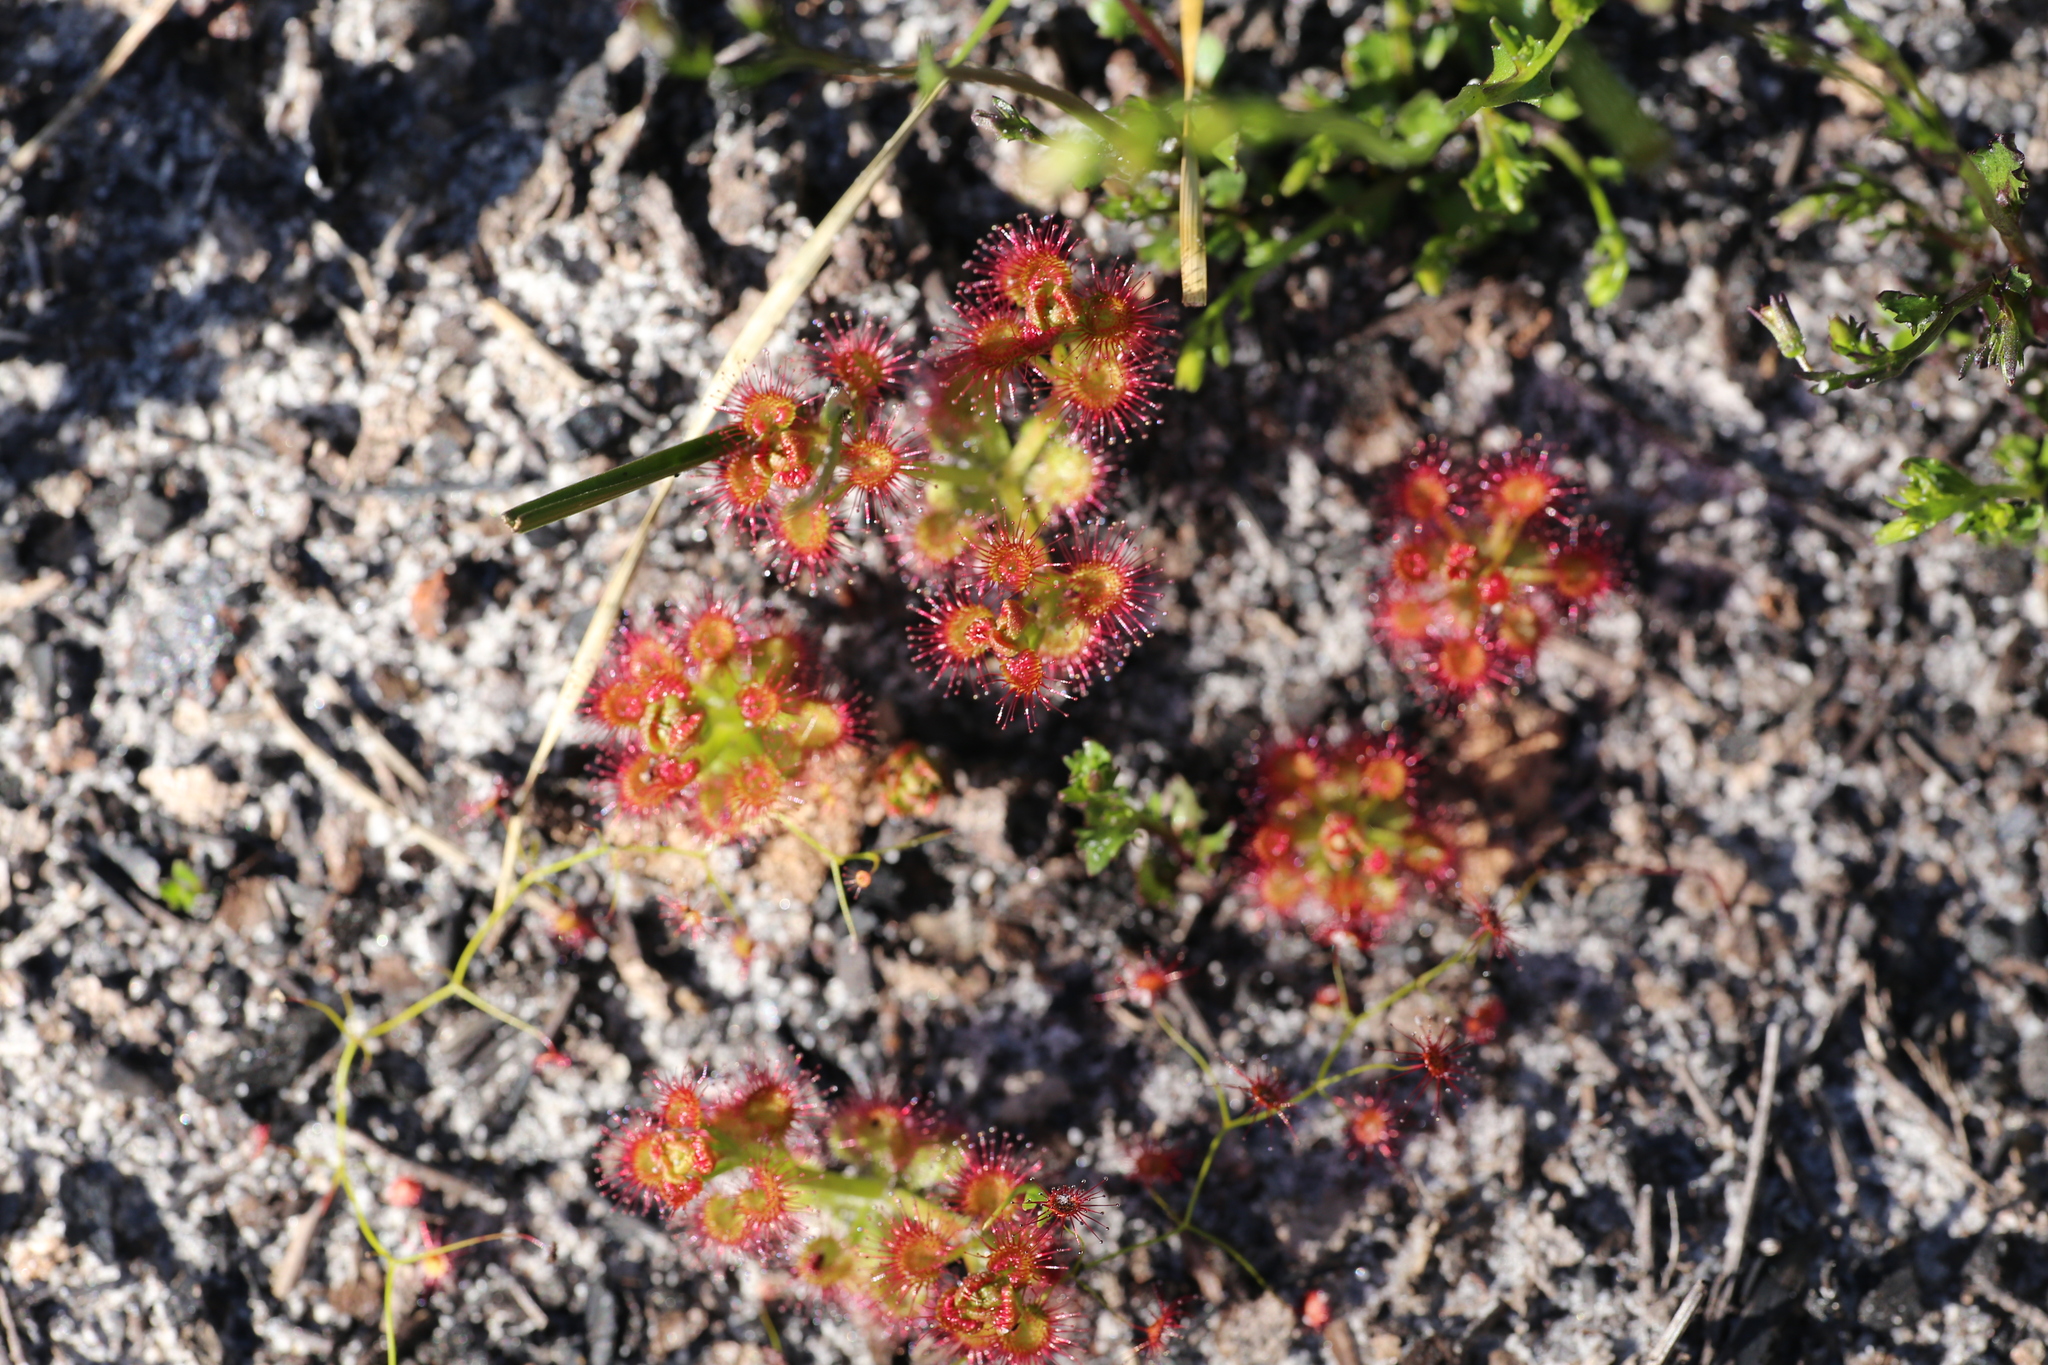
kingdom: Plantae
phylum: Tracheophyta
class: Magnoliopsida
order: Caryophyllales
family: Droseraceae
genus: Drosera
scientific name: Drosera stolonifera
